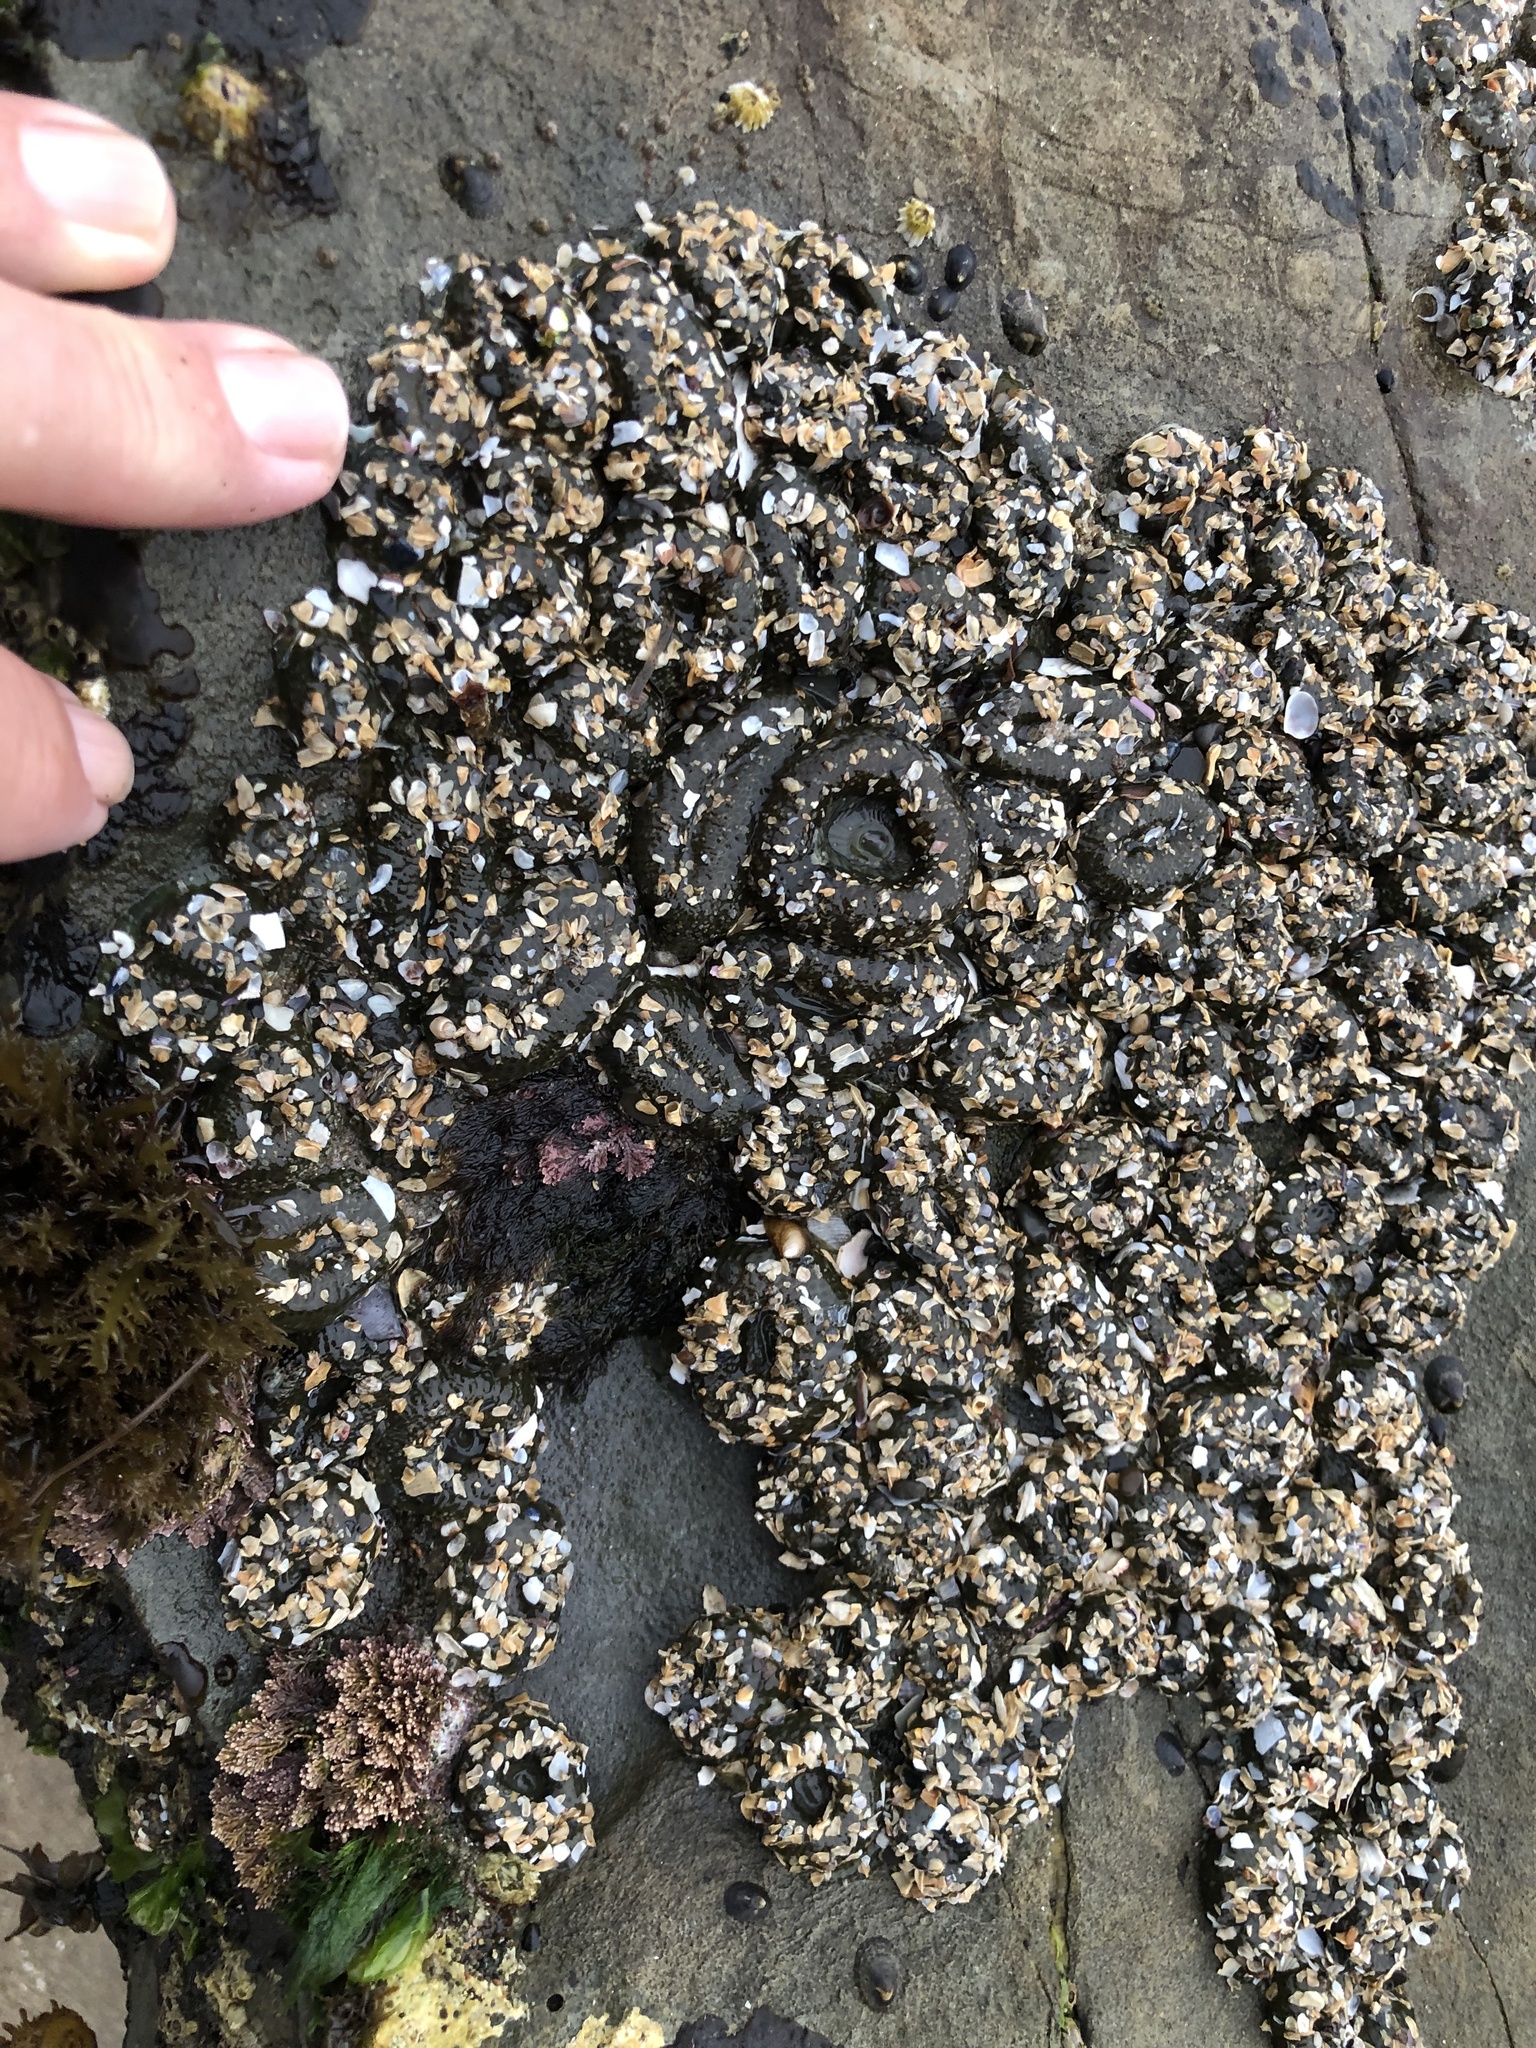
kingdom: Animalia
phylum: Cnidaria
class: Anthozoa
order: Actiniaria
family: Actiniidae
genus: Anthopleura
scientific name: Anthopleura elegantissima
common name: Clonal anemone
